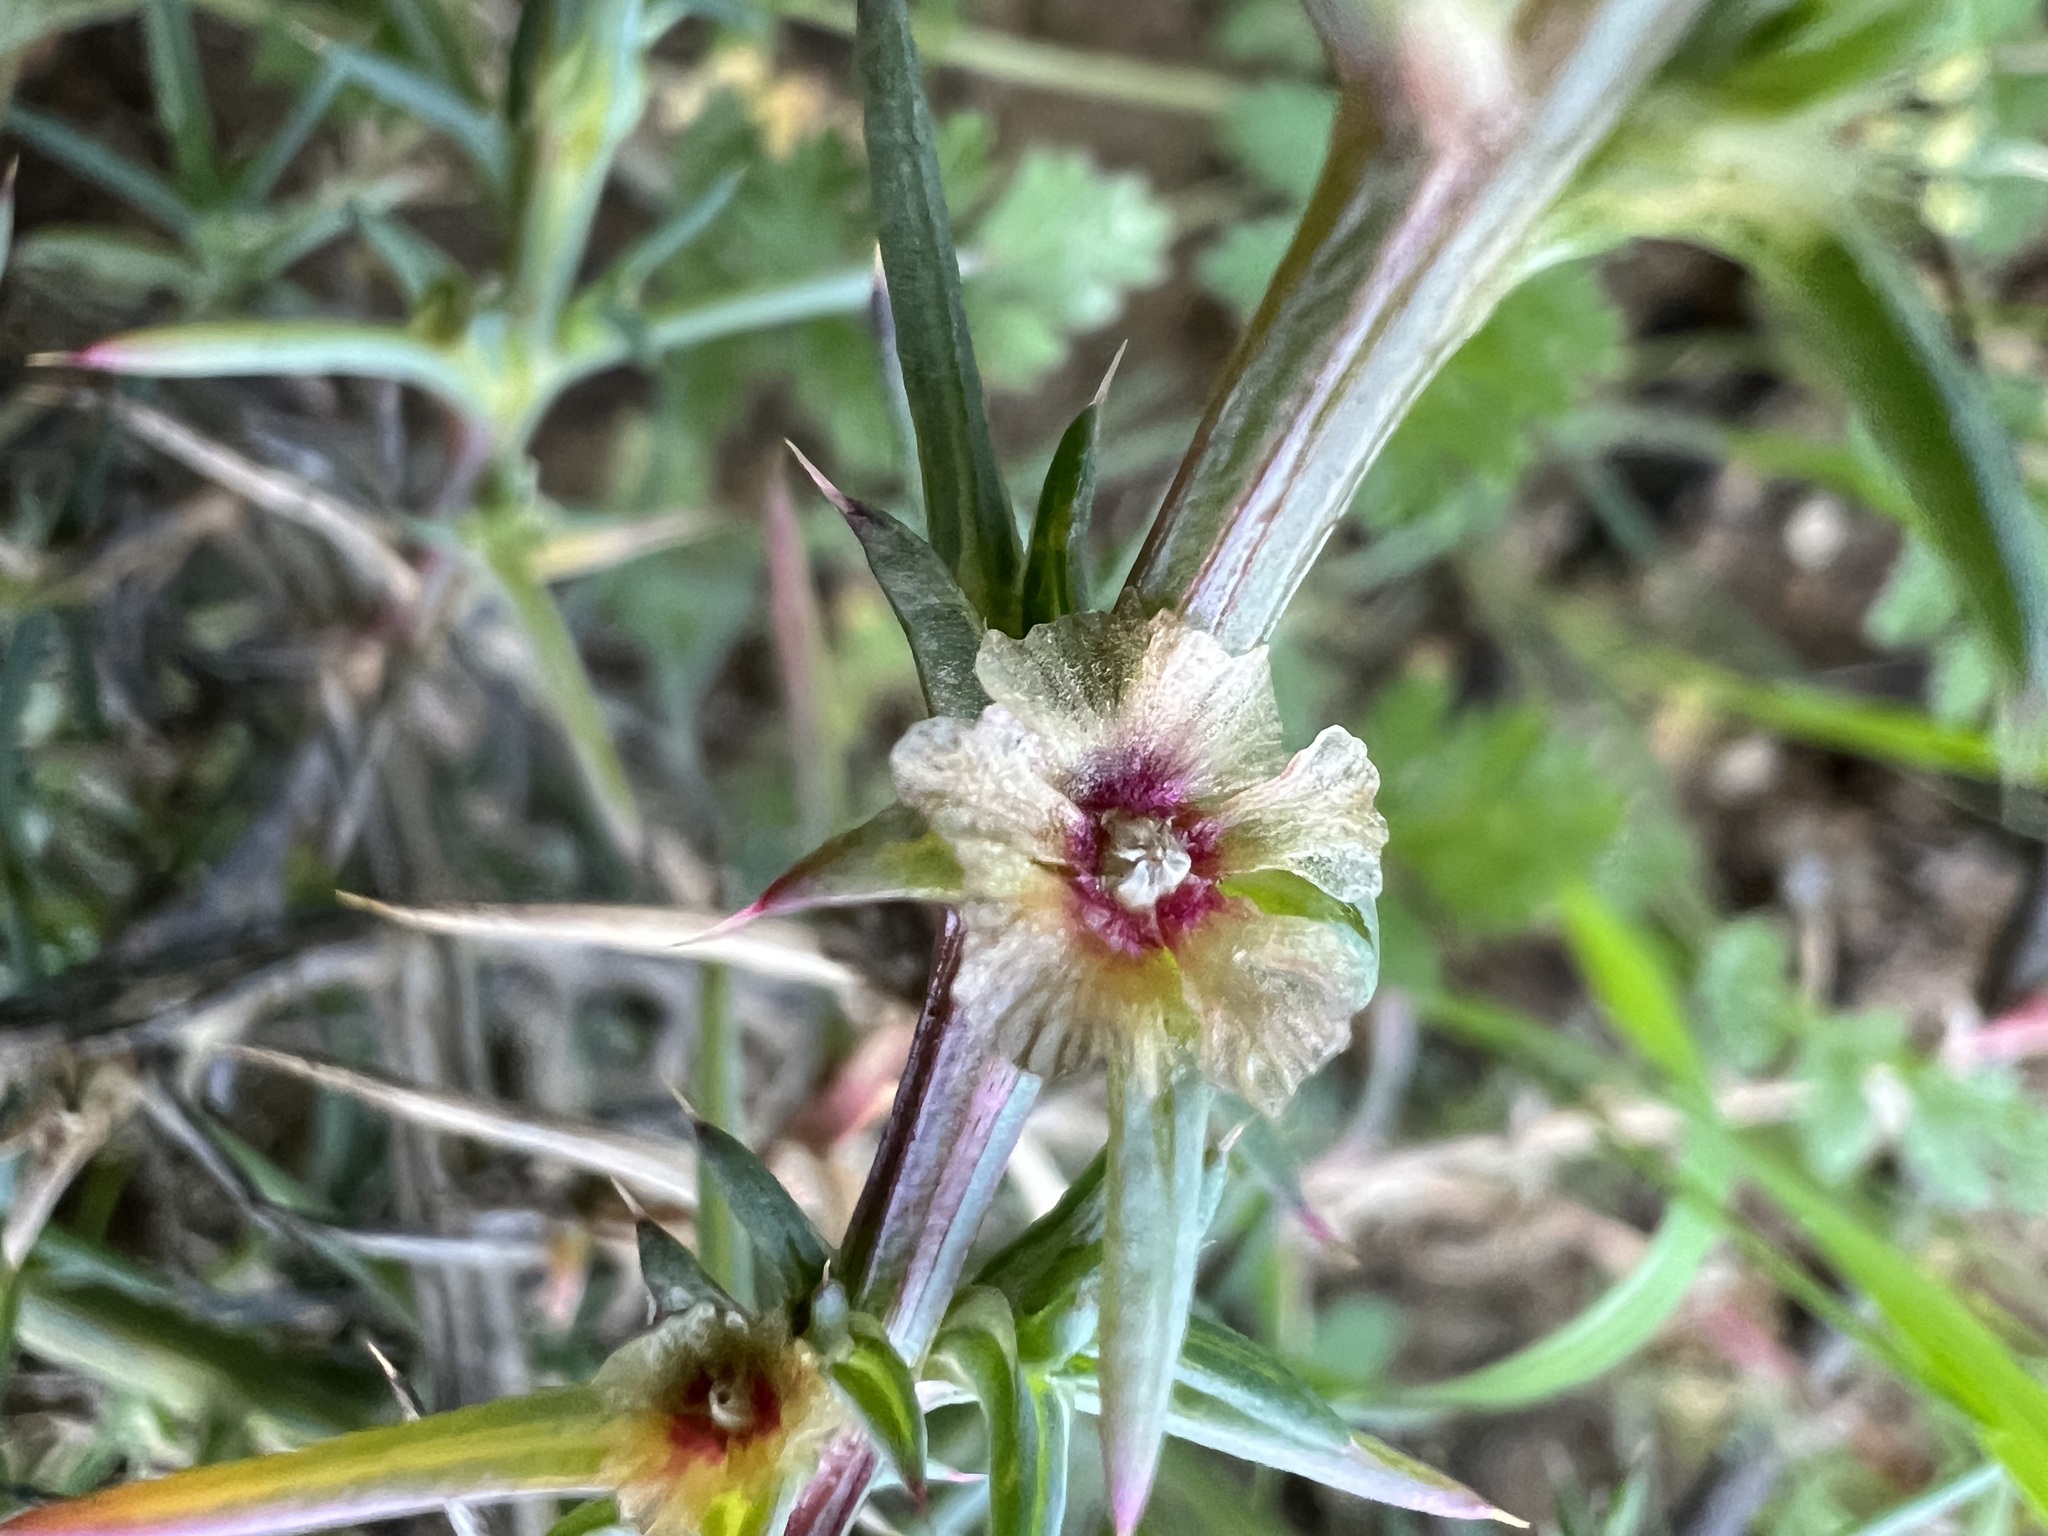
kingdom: Plantae
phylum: Tracheophyta
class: Magnoliopsida
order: Caryophyllales
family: Amaranthaceae
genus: Salsola
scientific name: Salsola australis
